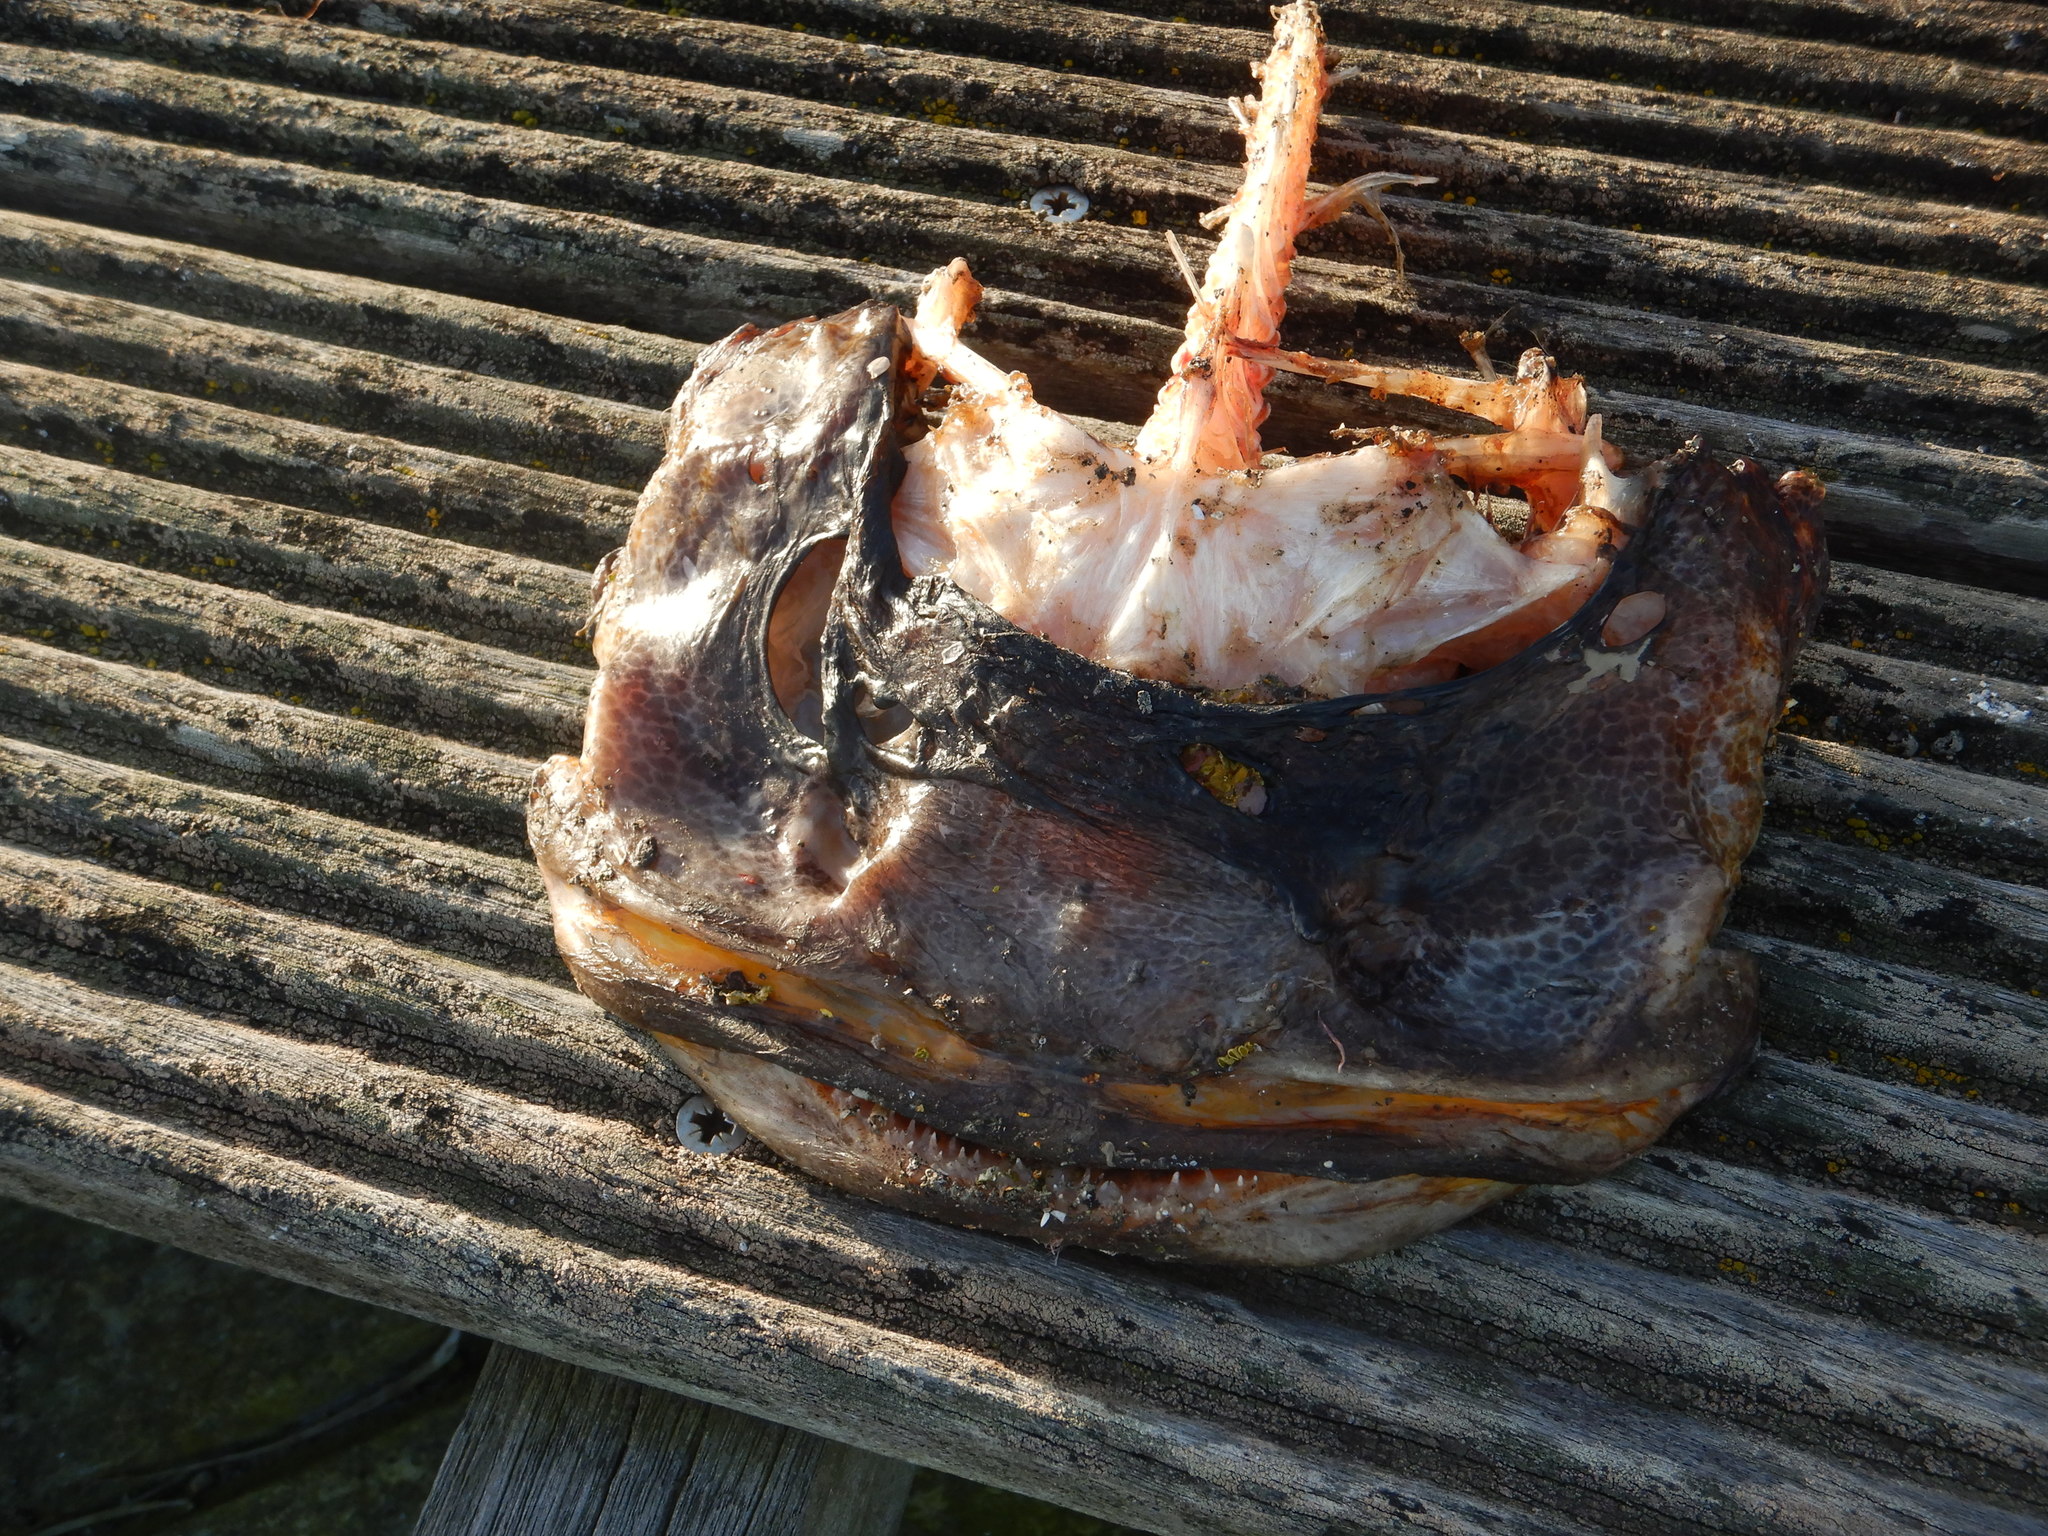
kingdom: Animalia
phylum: Chordata
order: Batrachoidiformes
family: Batrachoididae
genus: Halobatrachus
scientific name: Halobatrachus didactylus
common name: Lusitanian toadfish
